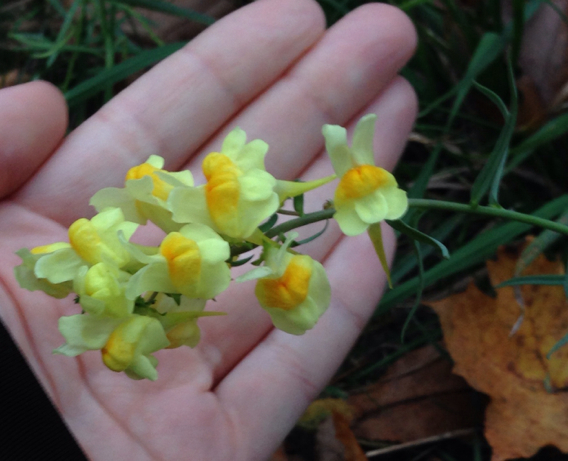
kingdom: Plantae
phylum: Tracheophyta
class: Magnoliopsida
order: Lamiales
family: Plantaginaceae
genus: Linaria
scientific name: Linaria vulgaris
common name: Butter and eggs
